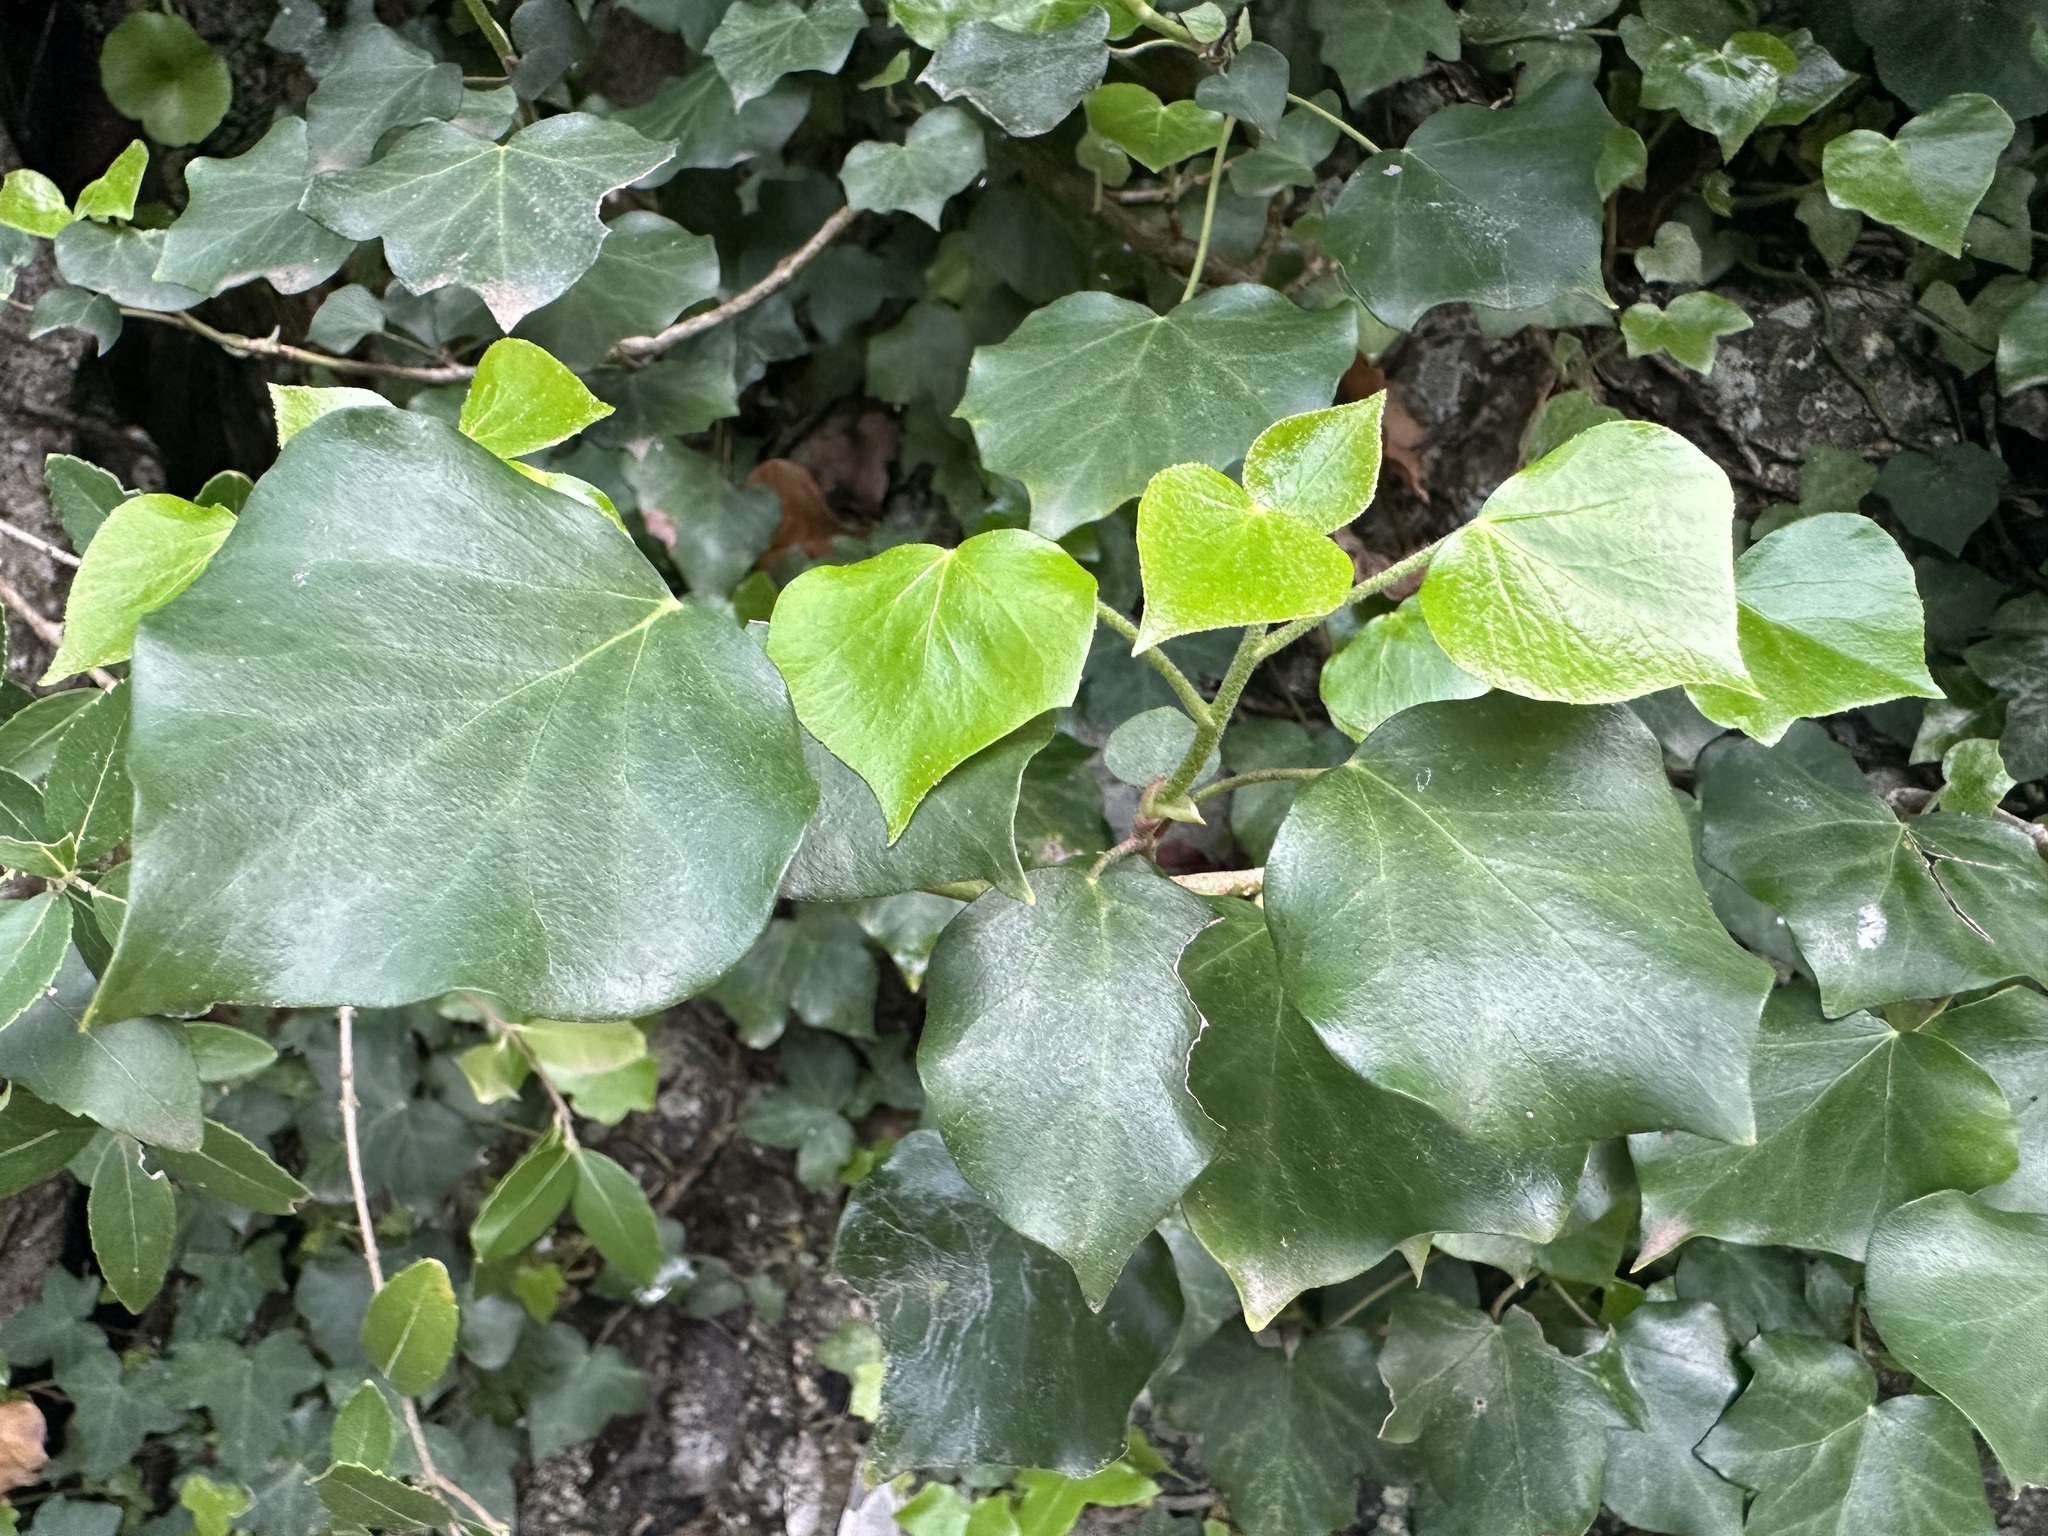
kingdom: Plantae
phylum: Tracheophyta
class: Magnoliopsida
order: Apiales
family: Araliaceae
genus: Hedera
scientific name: Hedera helix
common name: Ivy
